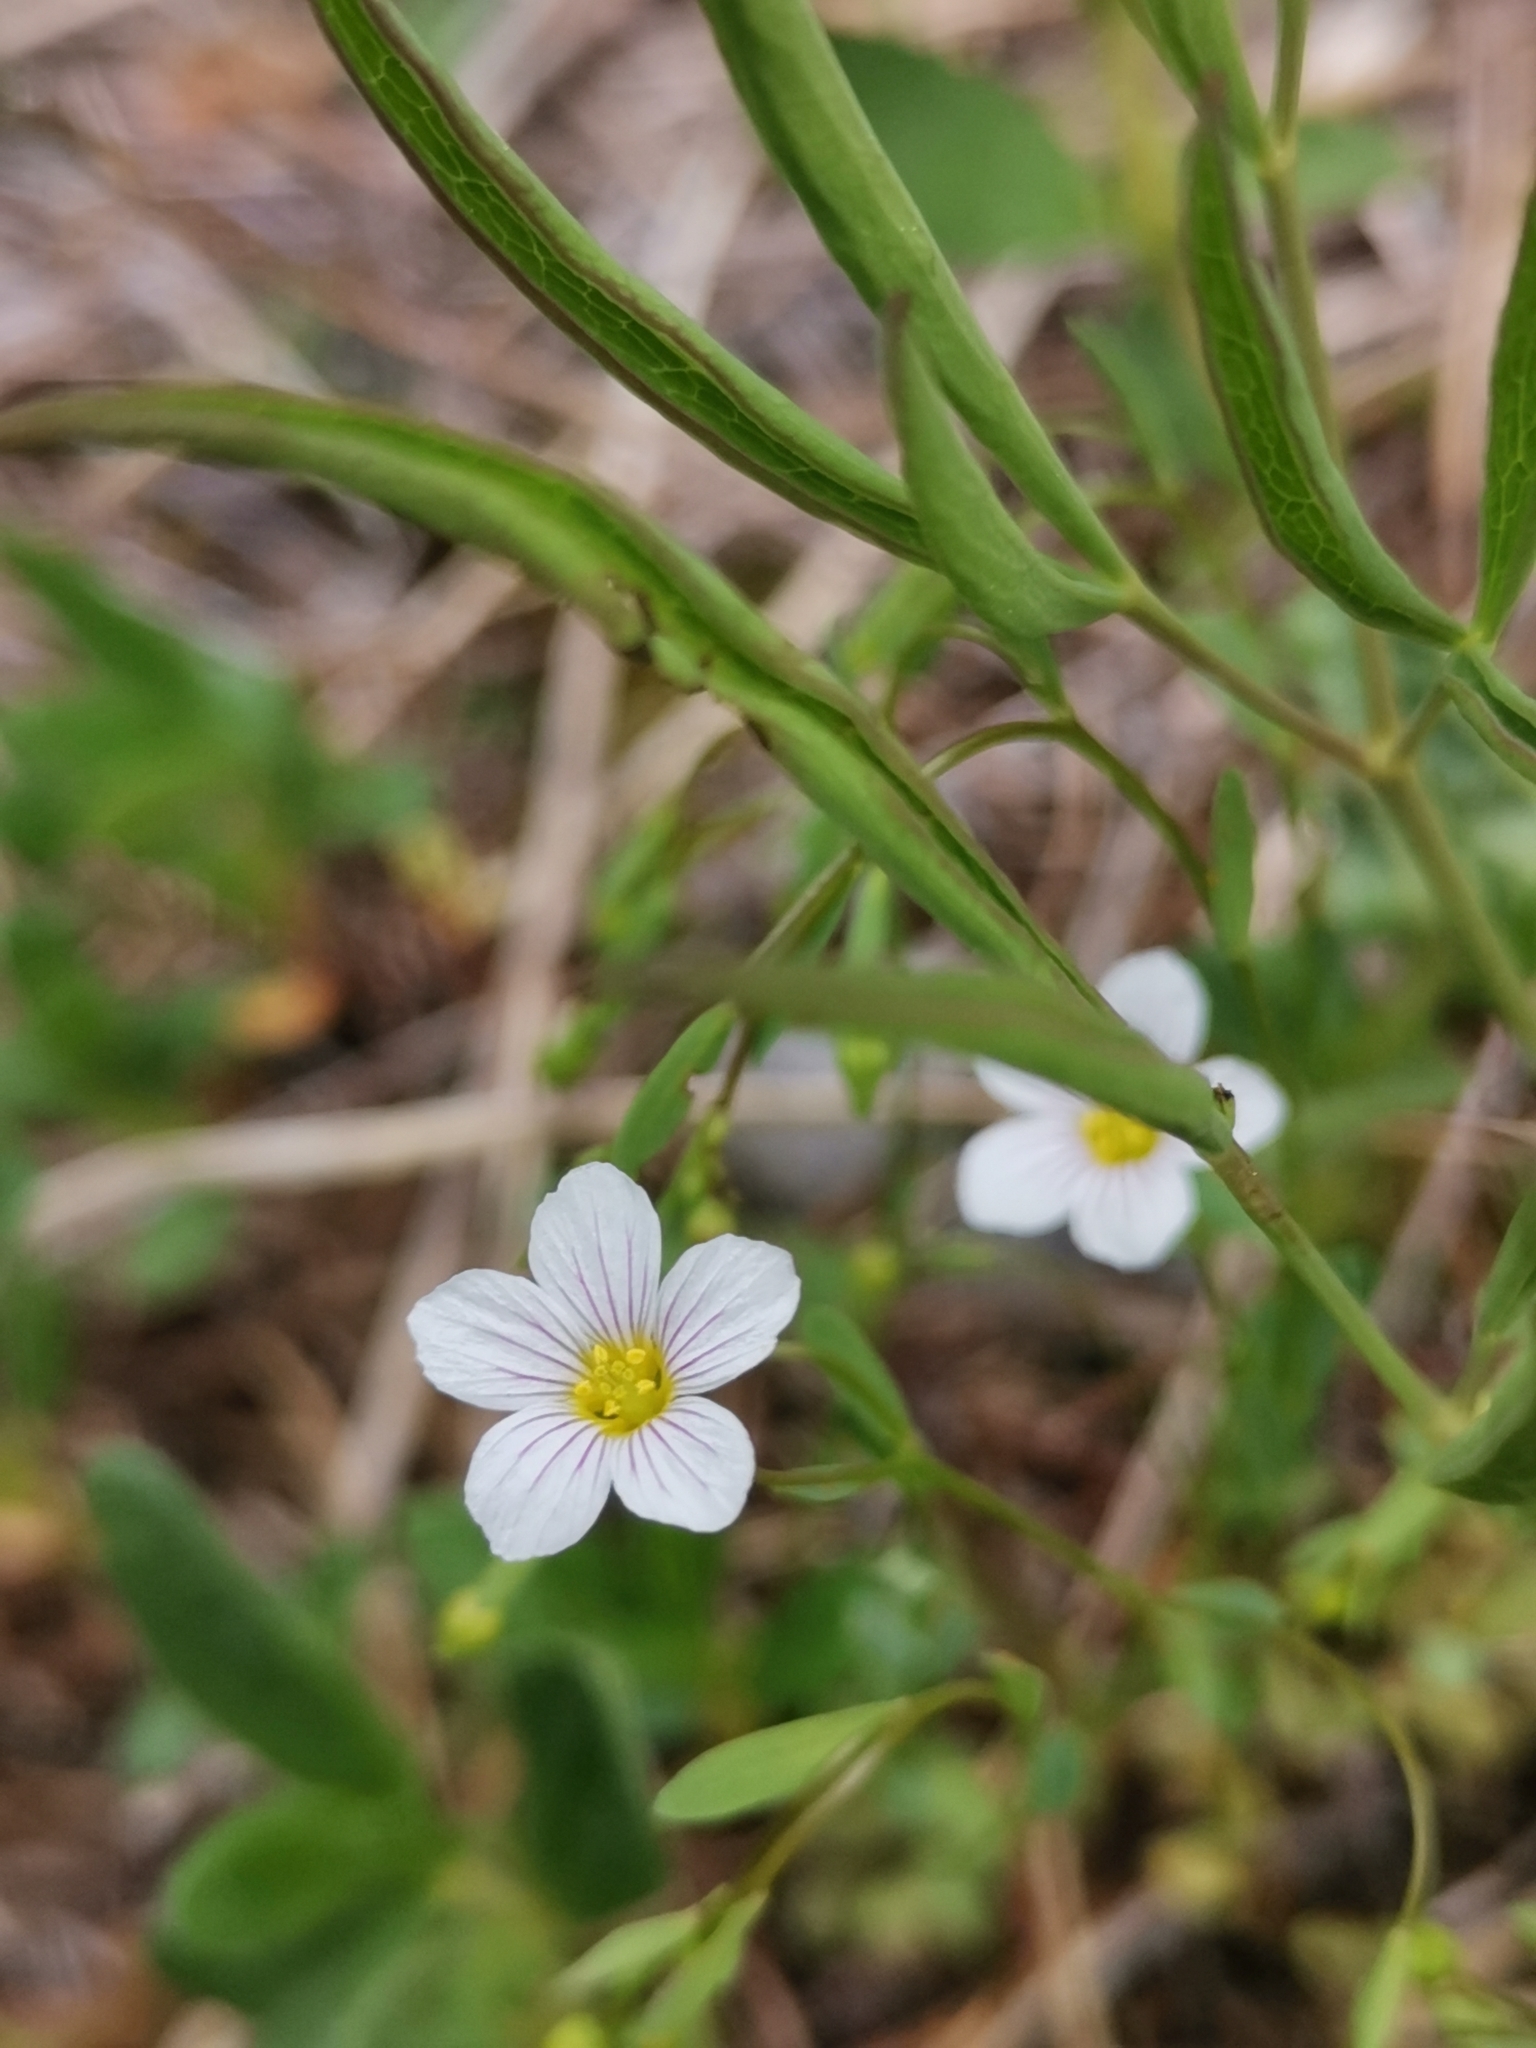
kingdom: Plantae
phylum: Tracheophyta
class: Magnoliopsida
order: Malpighiales
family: Linaceae
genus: Linum
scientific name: Linum catharticum
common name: Fairy flax
